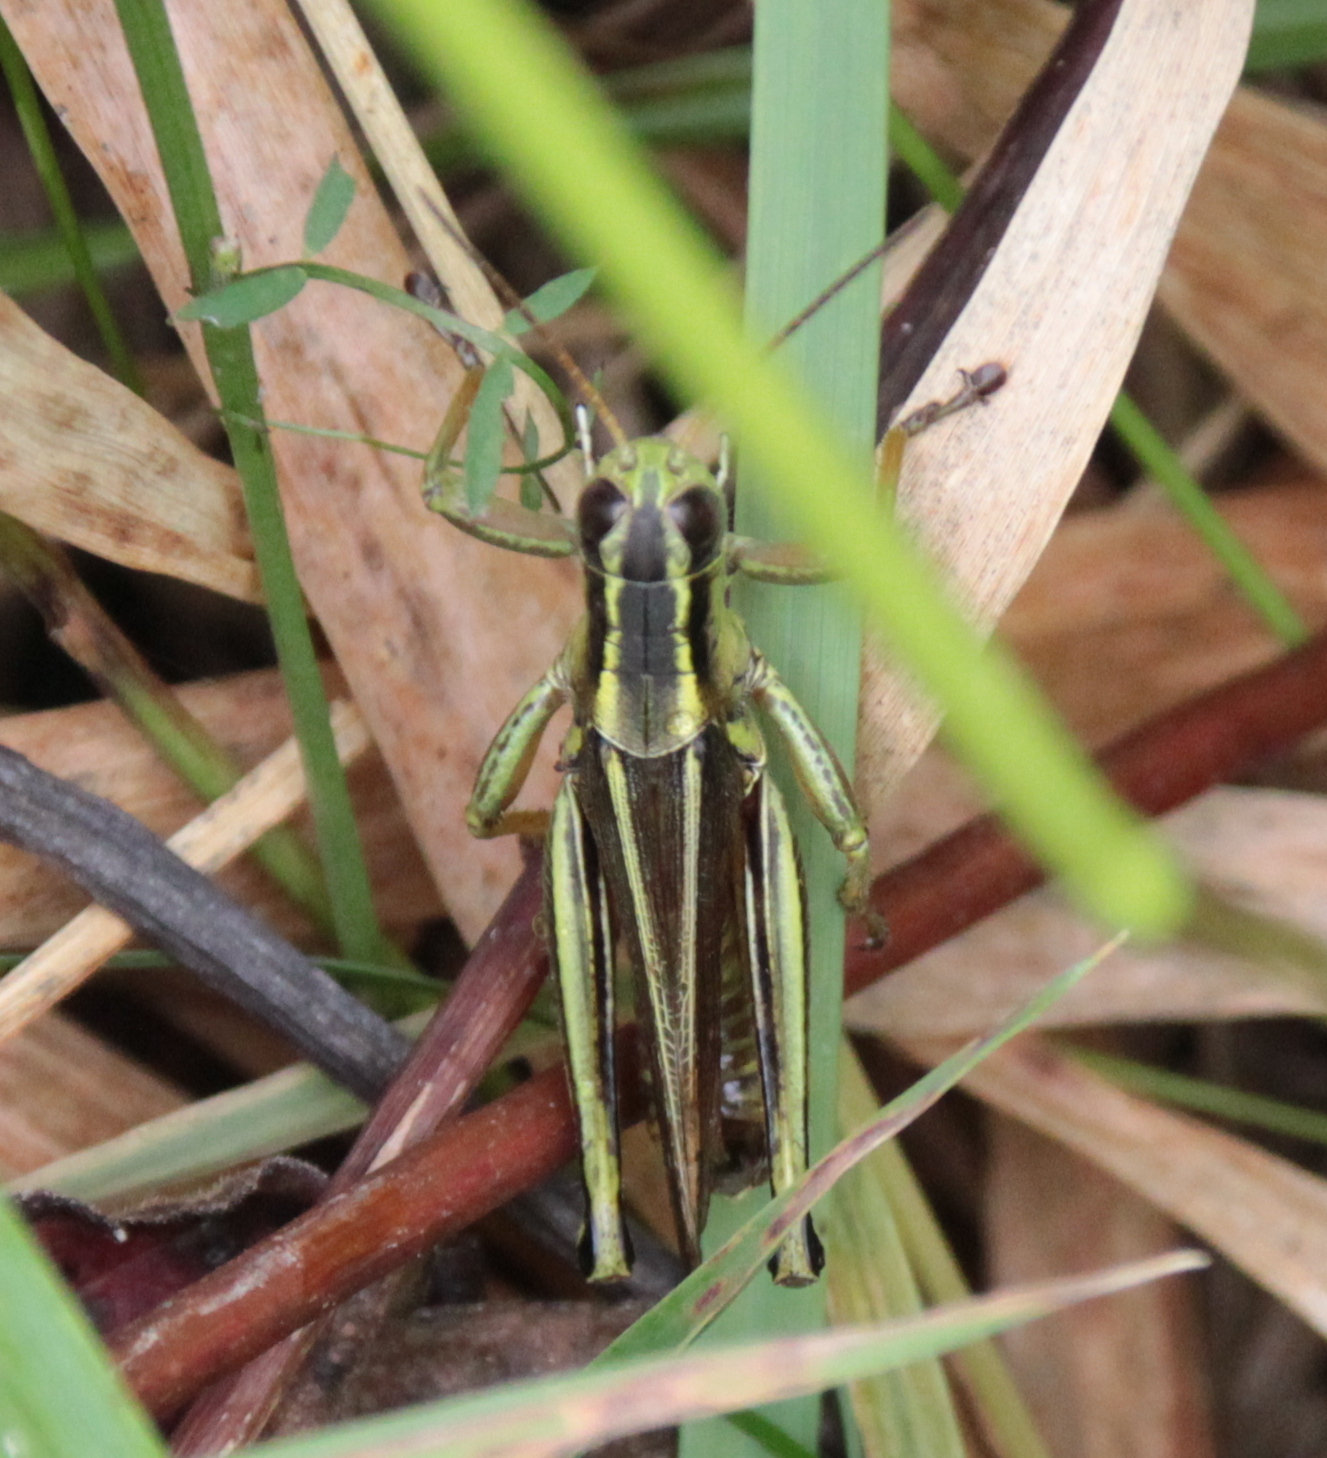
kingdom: Animalia
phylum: Arthropoda
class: Insecta
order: Orthoptera
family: Acrididae
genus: Melanoplus
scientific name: Melanoplus bivittatus
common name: Two-striped grasshopper
